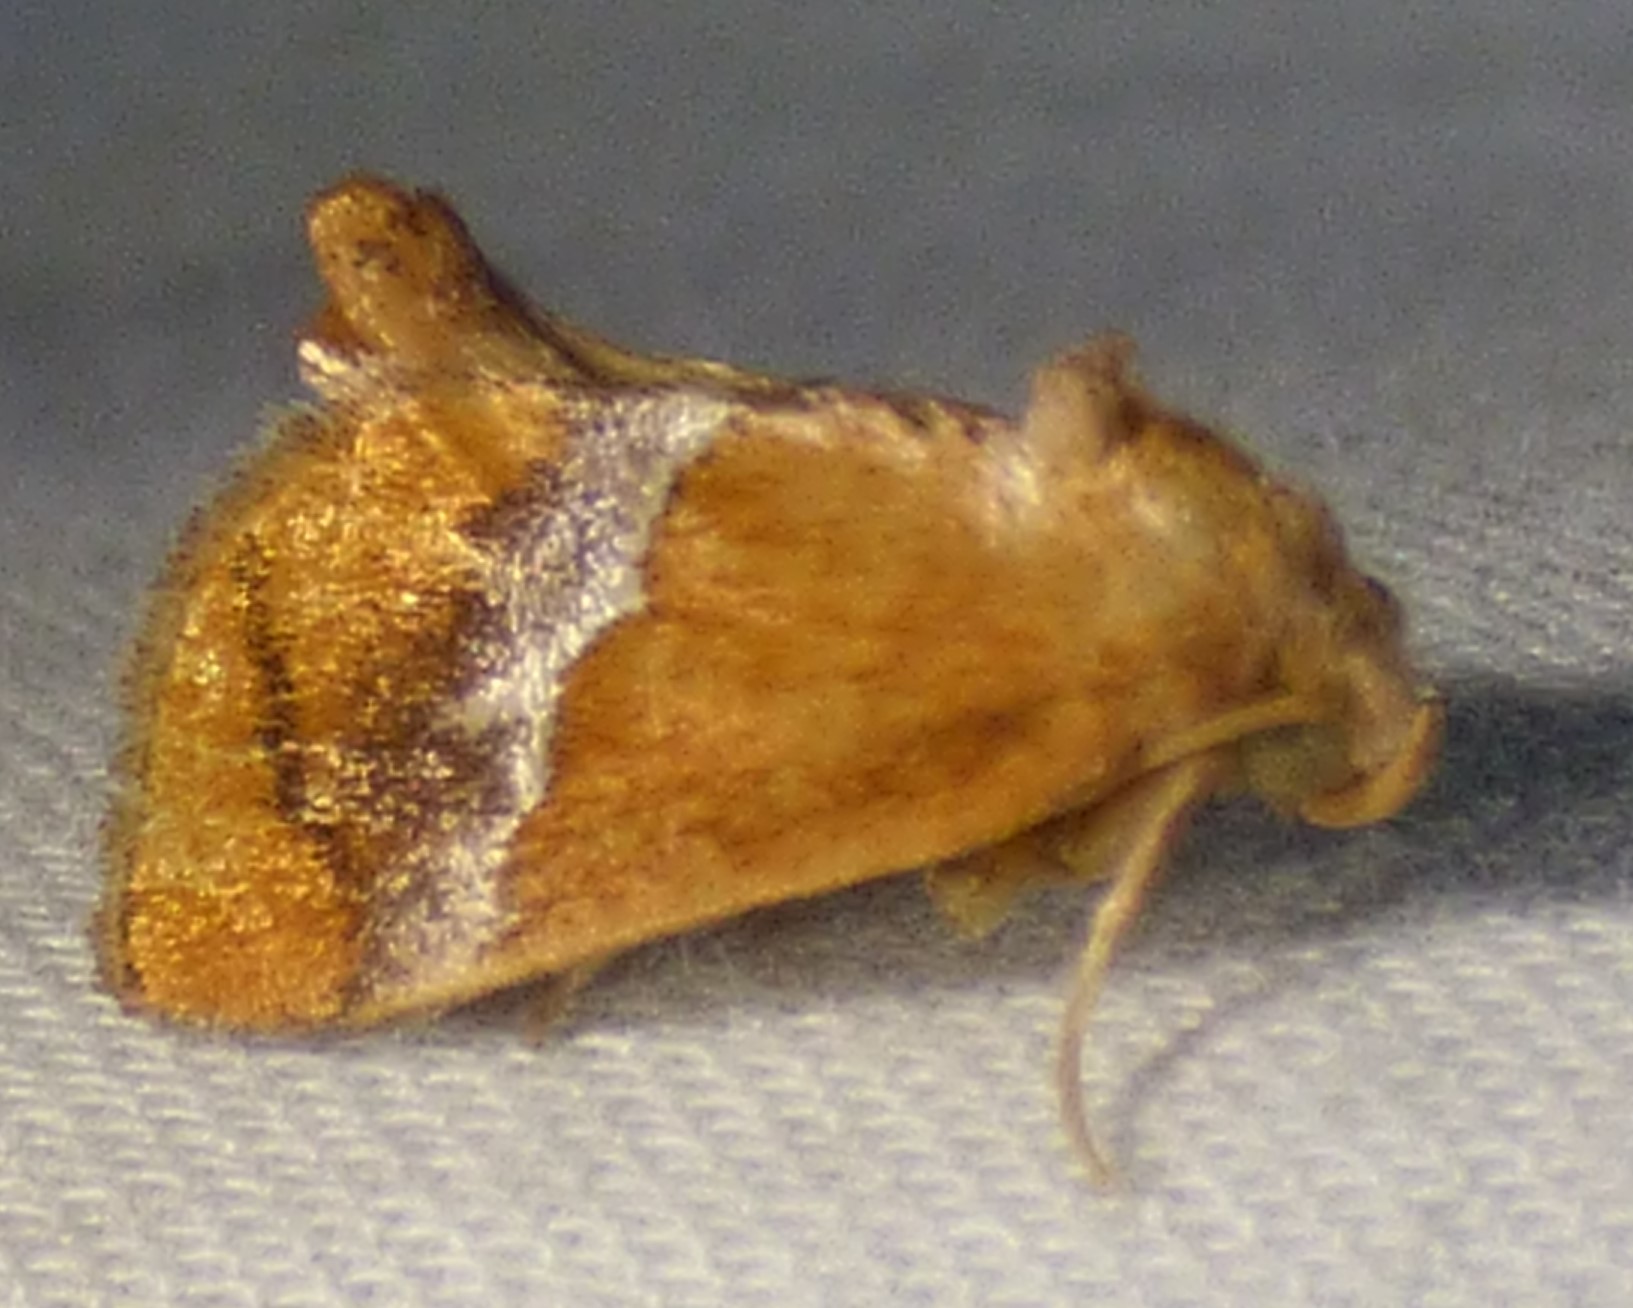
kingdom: Animalia
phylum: Arthropoda
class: Insecta
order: Lepidoptera
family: Limacodidae
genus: Lithacodes
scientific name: Lithacodes fasciola
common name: Yellow-shouldered slug moth
